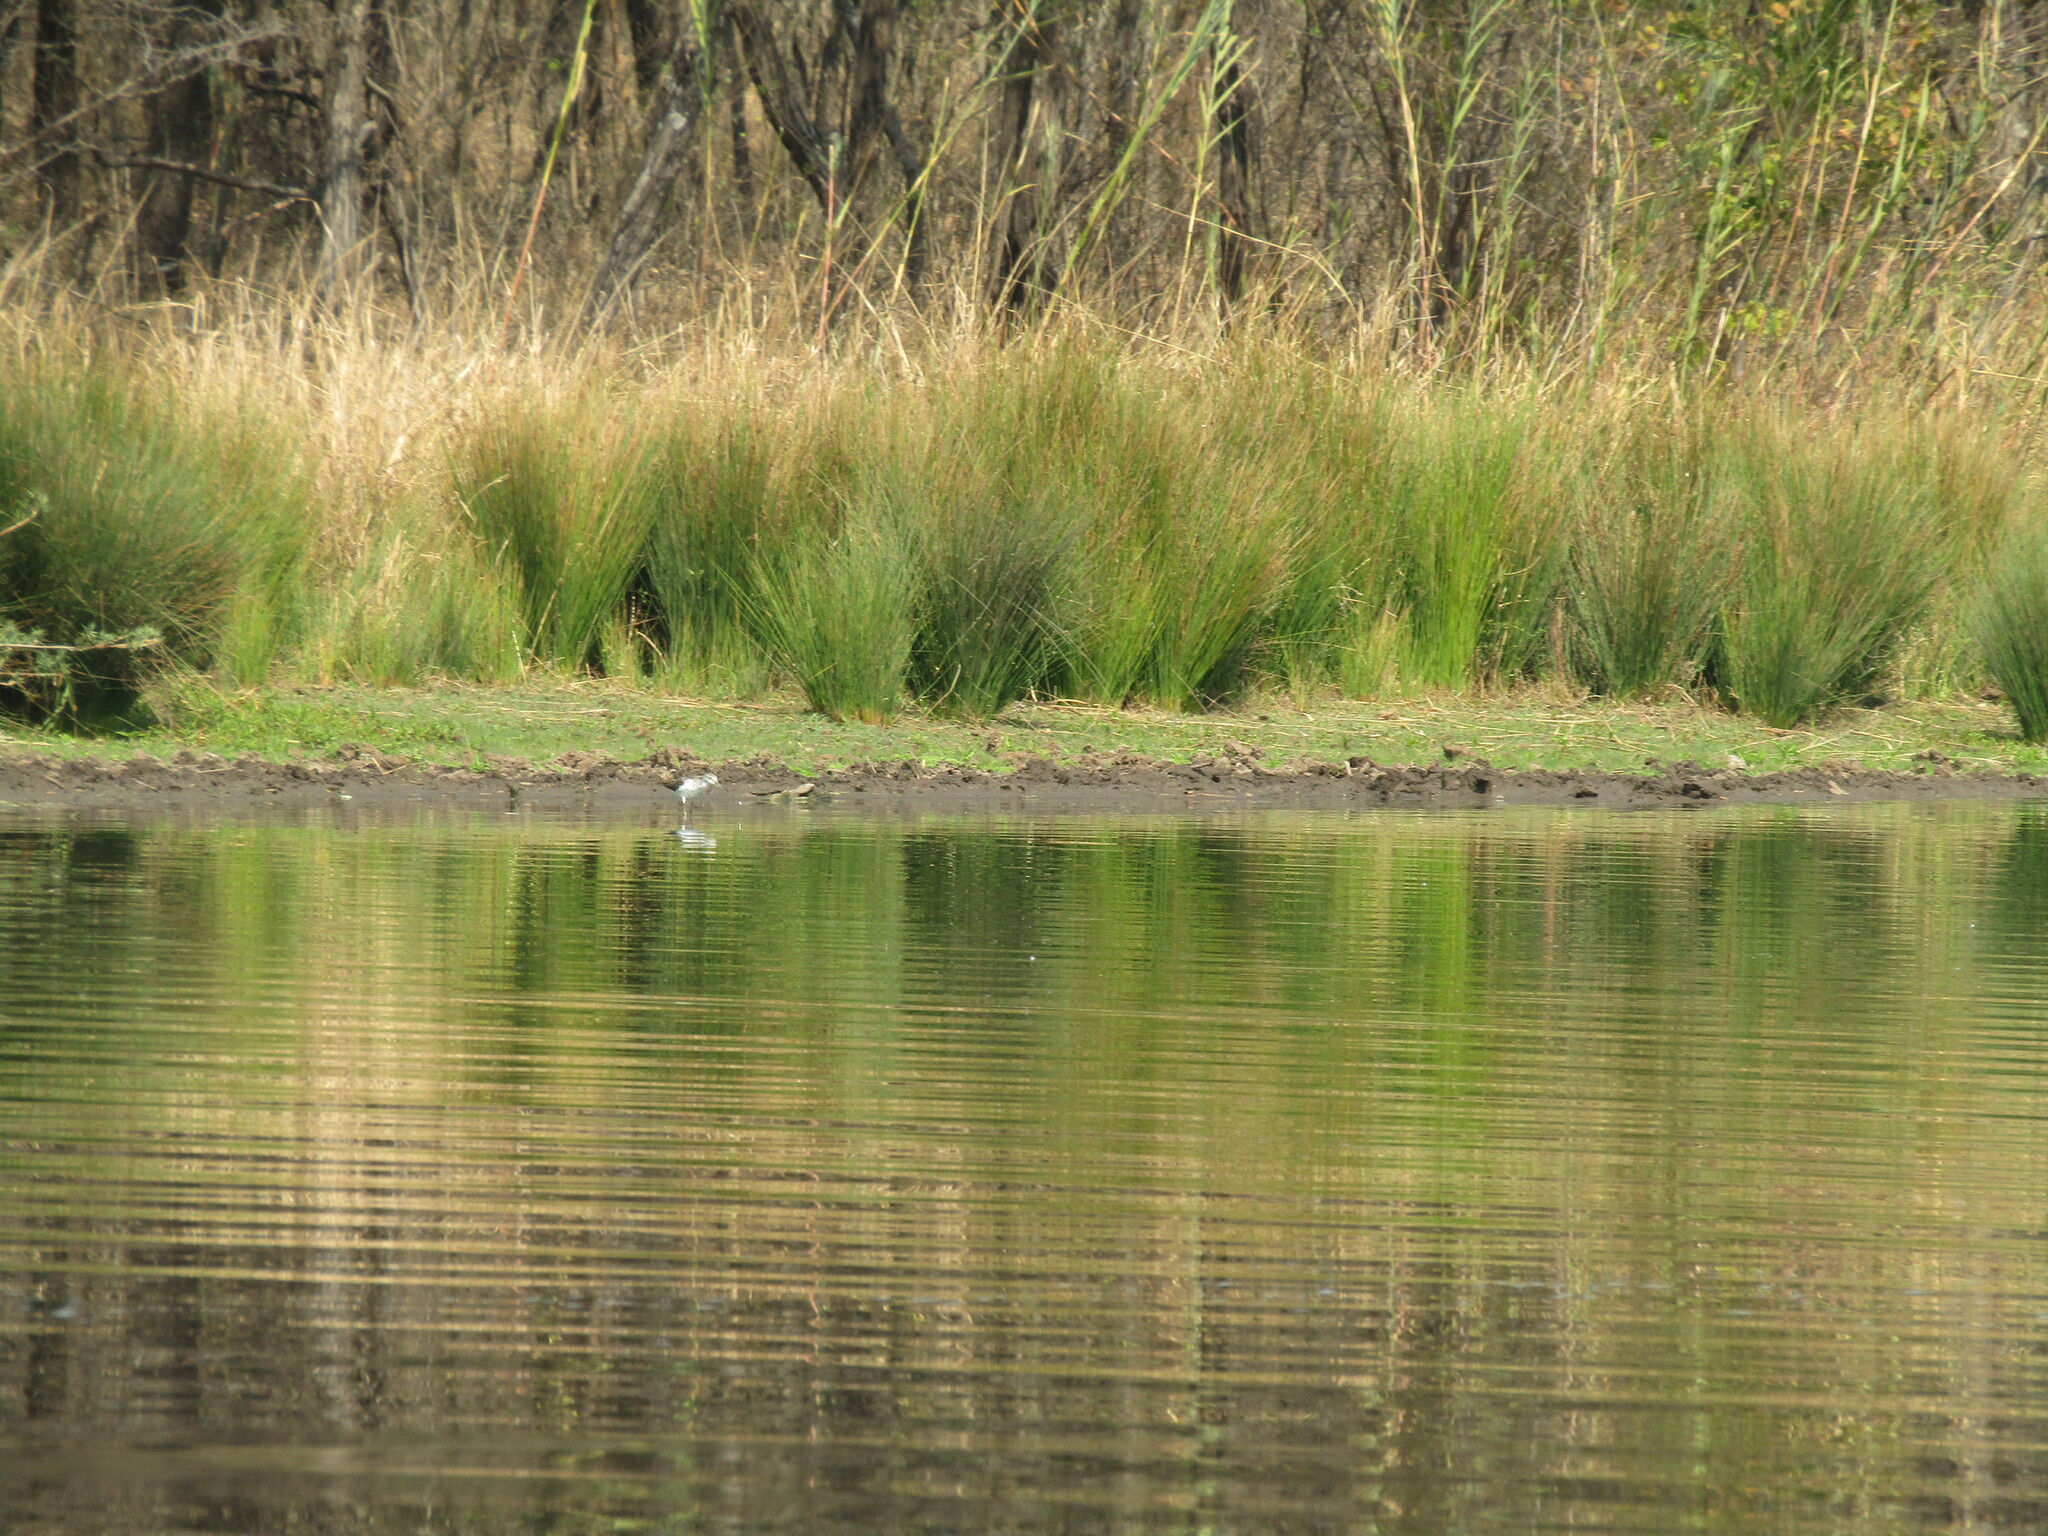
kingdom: Animalia
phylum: Chordata
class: Aves
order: Charadriiformes
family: Scolopacidae
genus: Tringa
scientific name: Tringa nebularia
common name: Common greenshank
